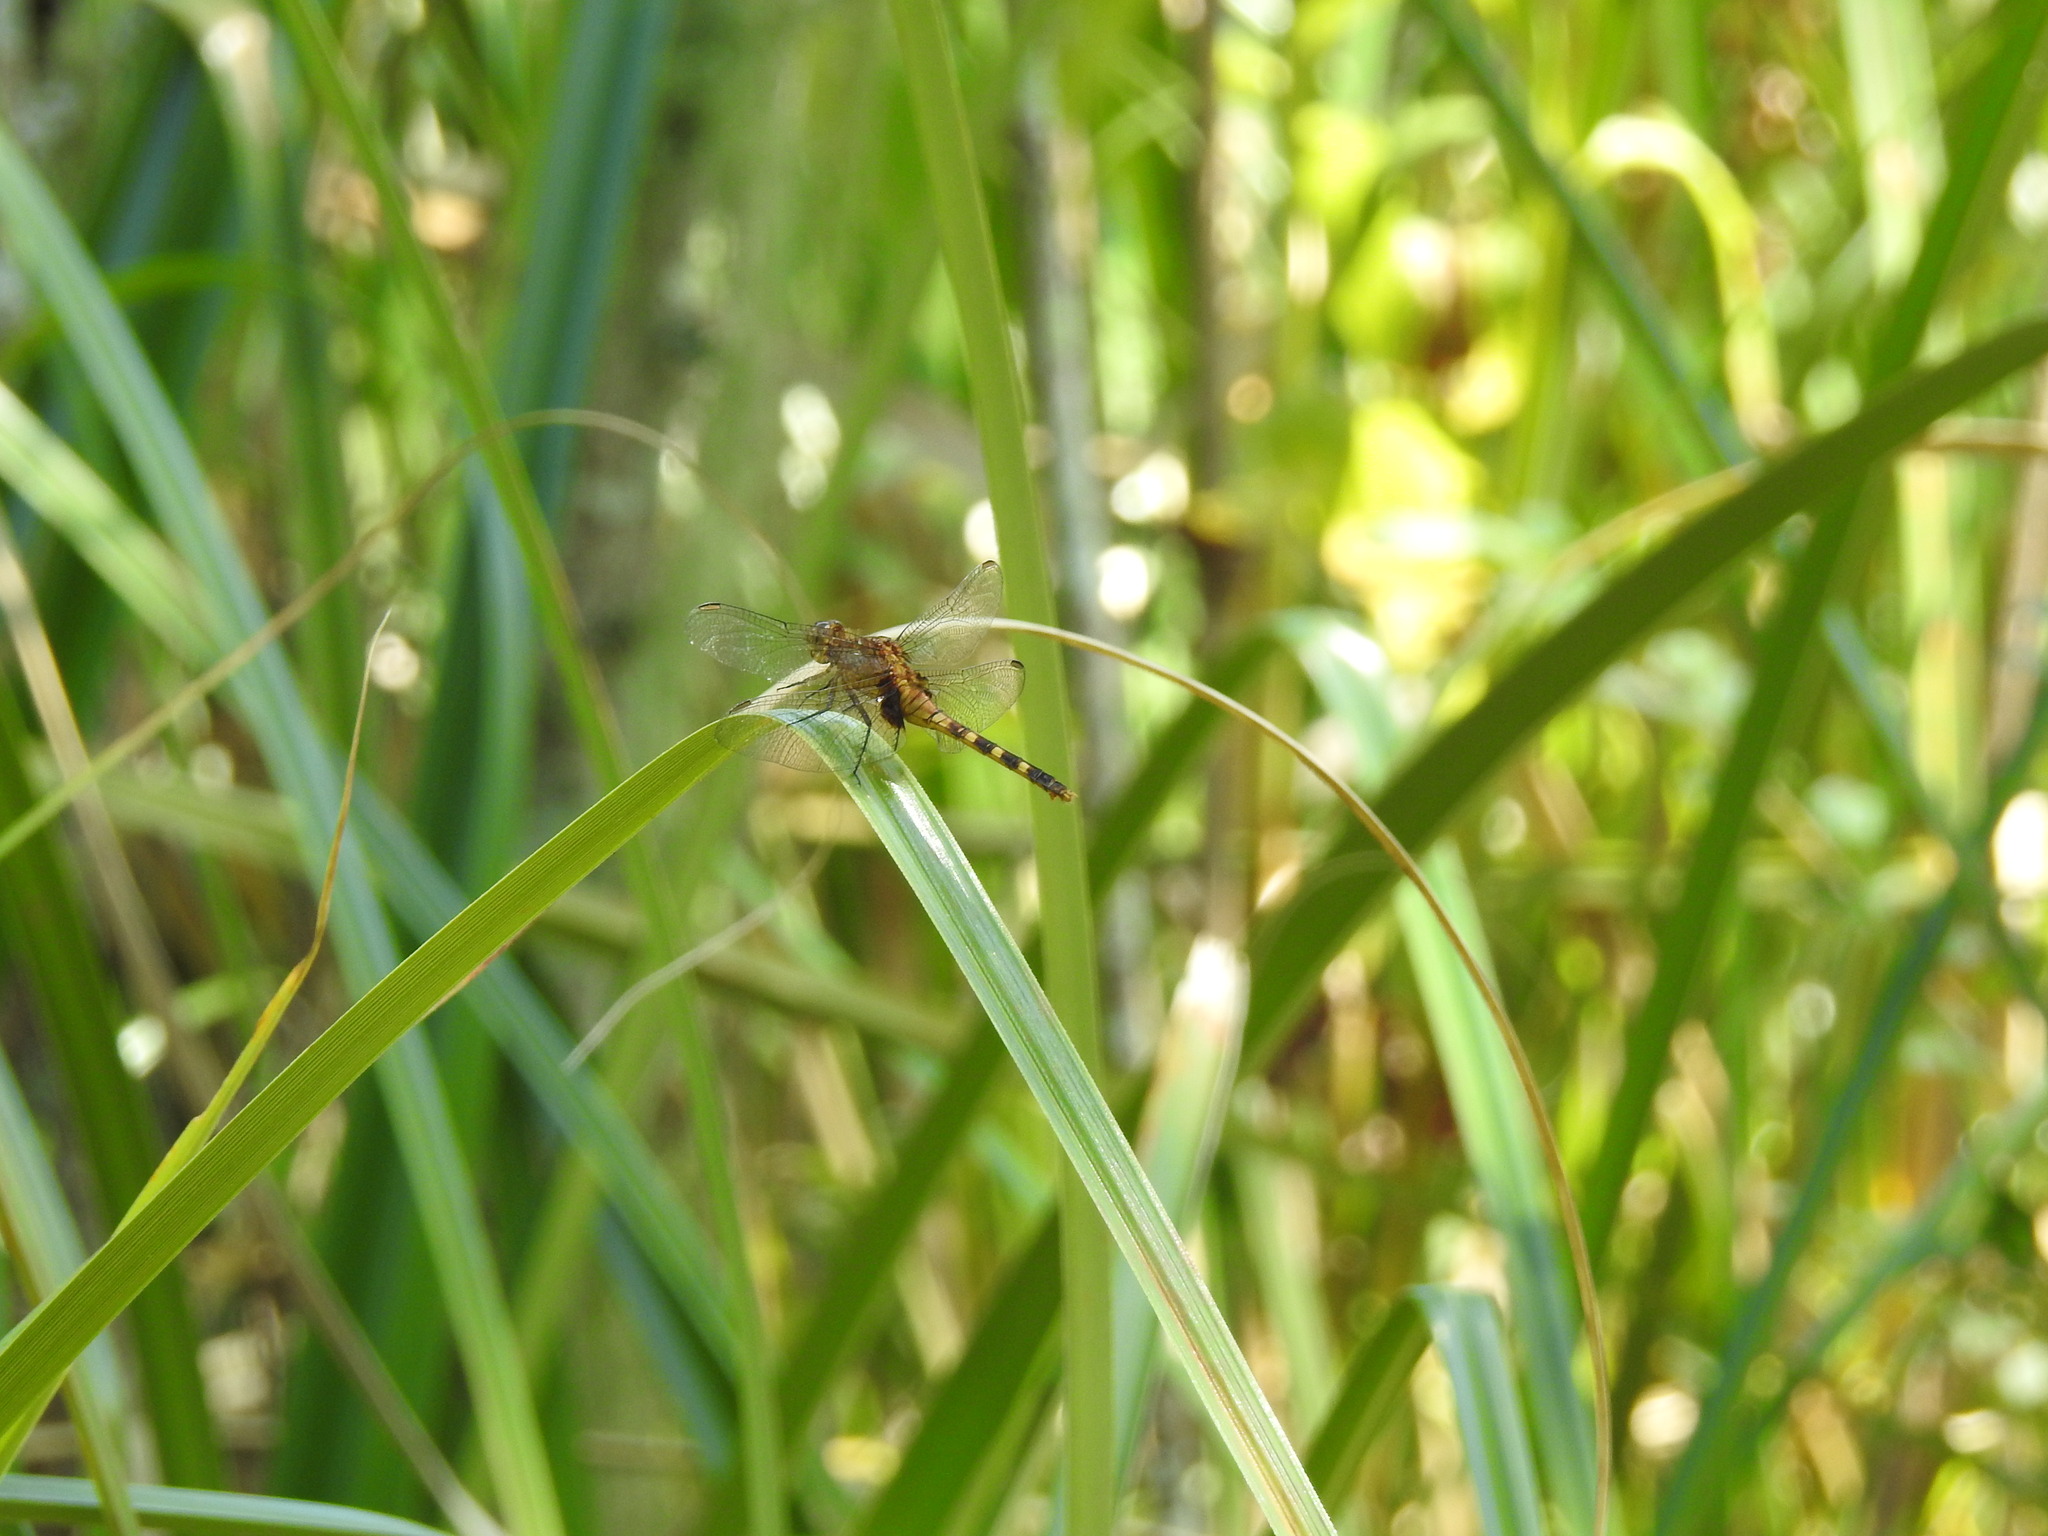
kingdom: Animalia
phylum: Arthropoda
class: Insecta
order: Odonata
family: Libellulidae
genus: Erythemis
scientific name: Erythemis attala
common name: Black pondhawk
